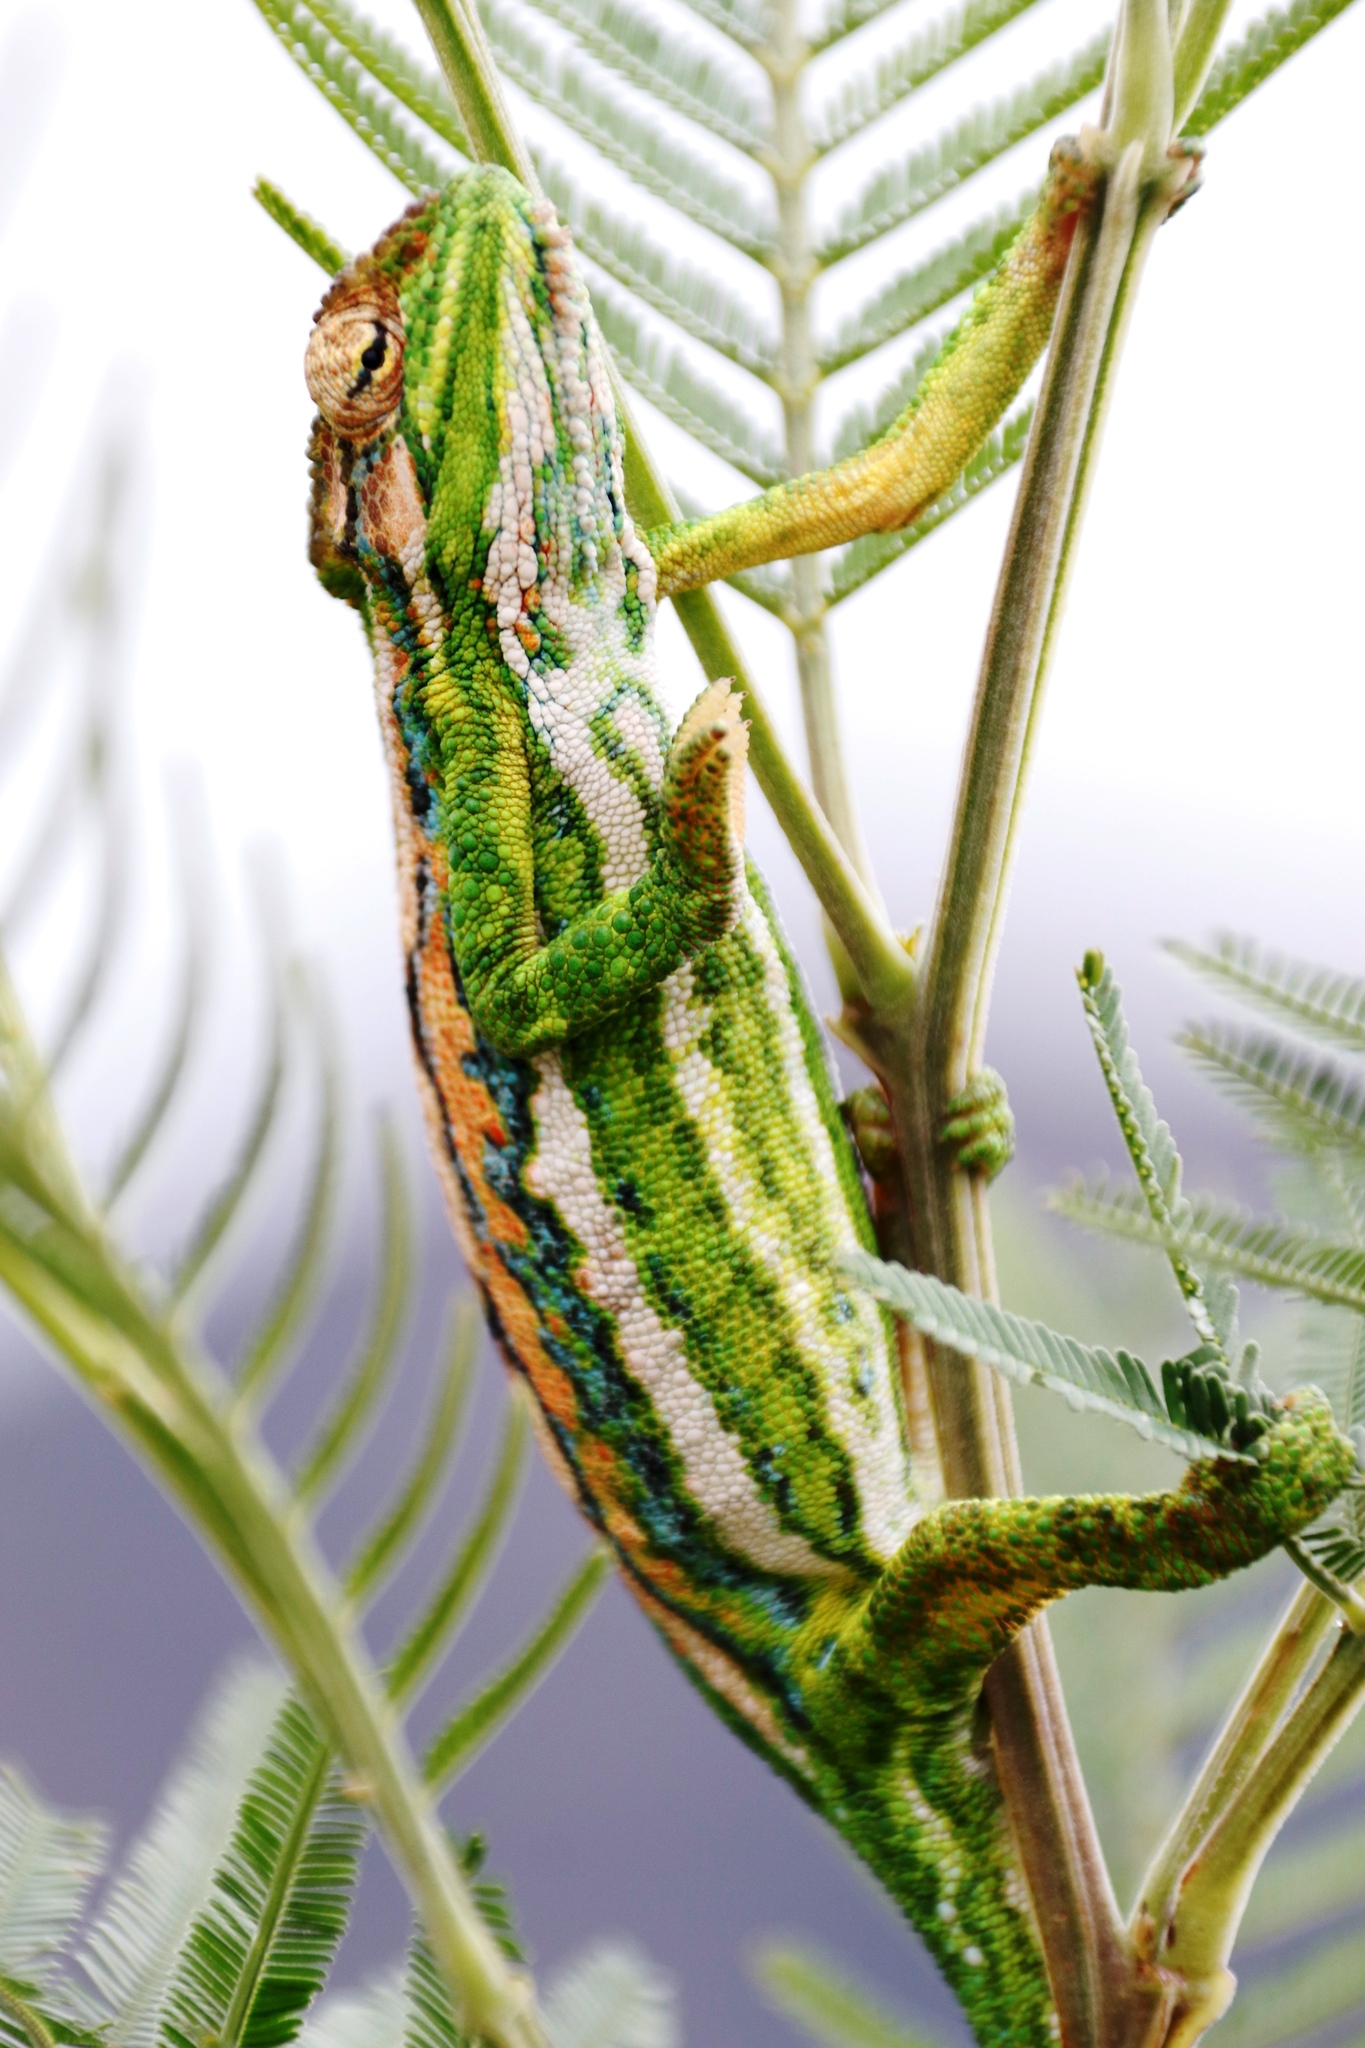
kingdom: Animalia
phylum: Chordata
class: Squamata
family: Chamaeleonidae
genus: Bradypodion
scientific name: Bradypodion pumilum
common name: Cape dwarf chameleon
